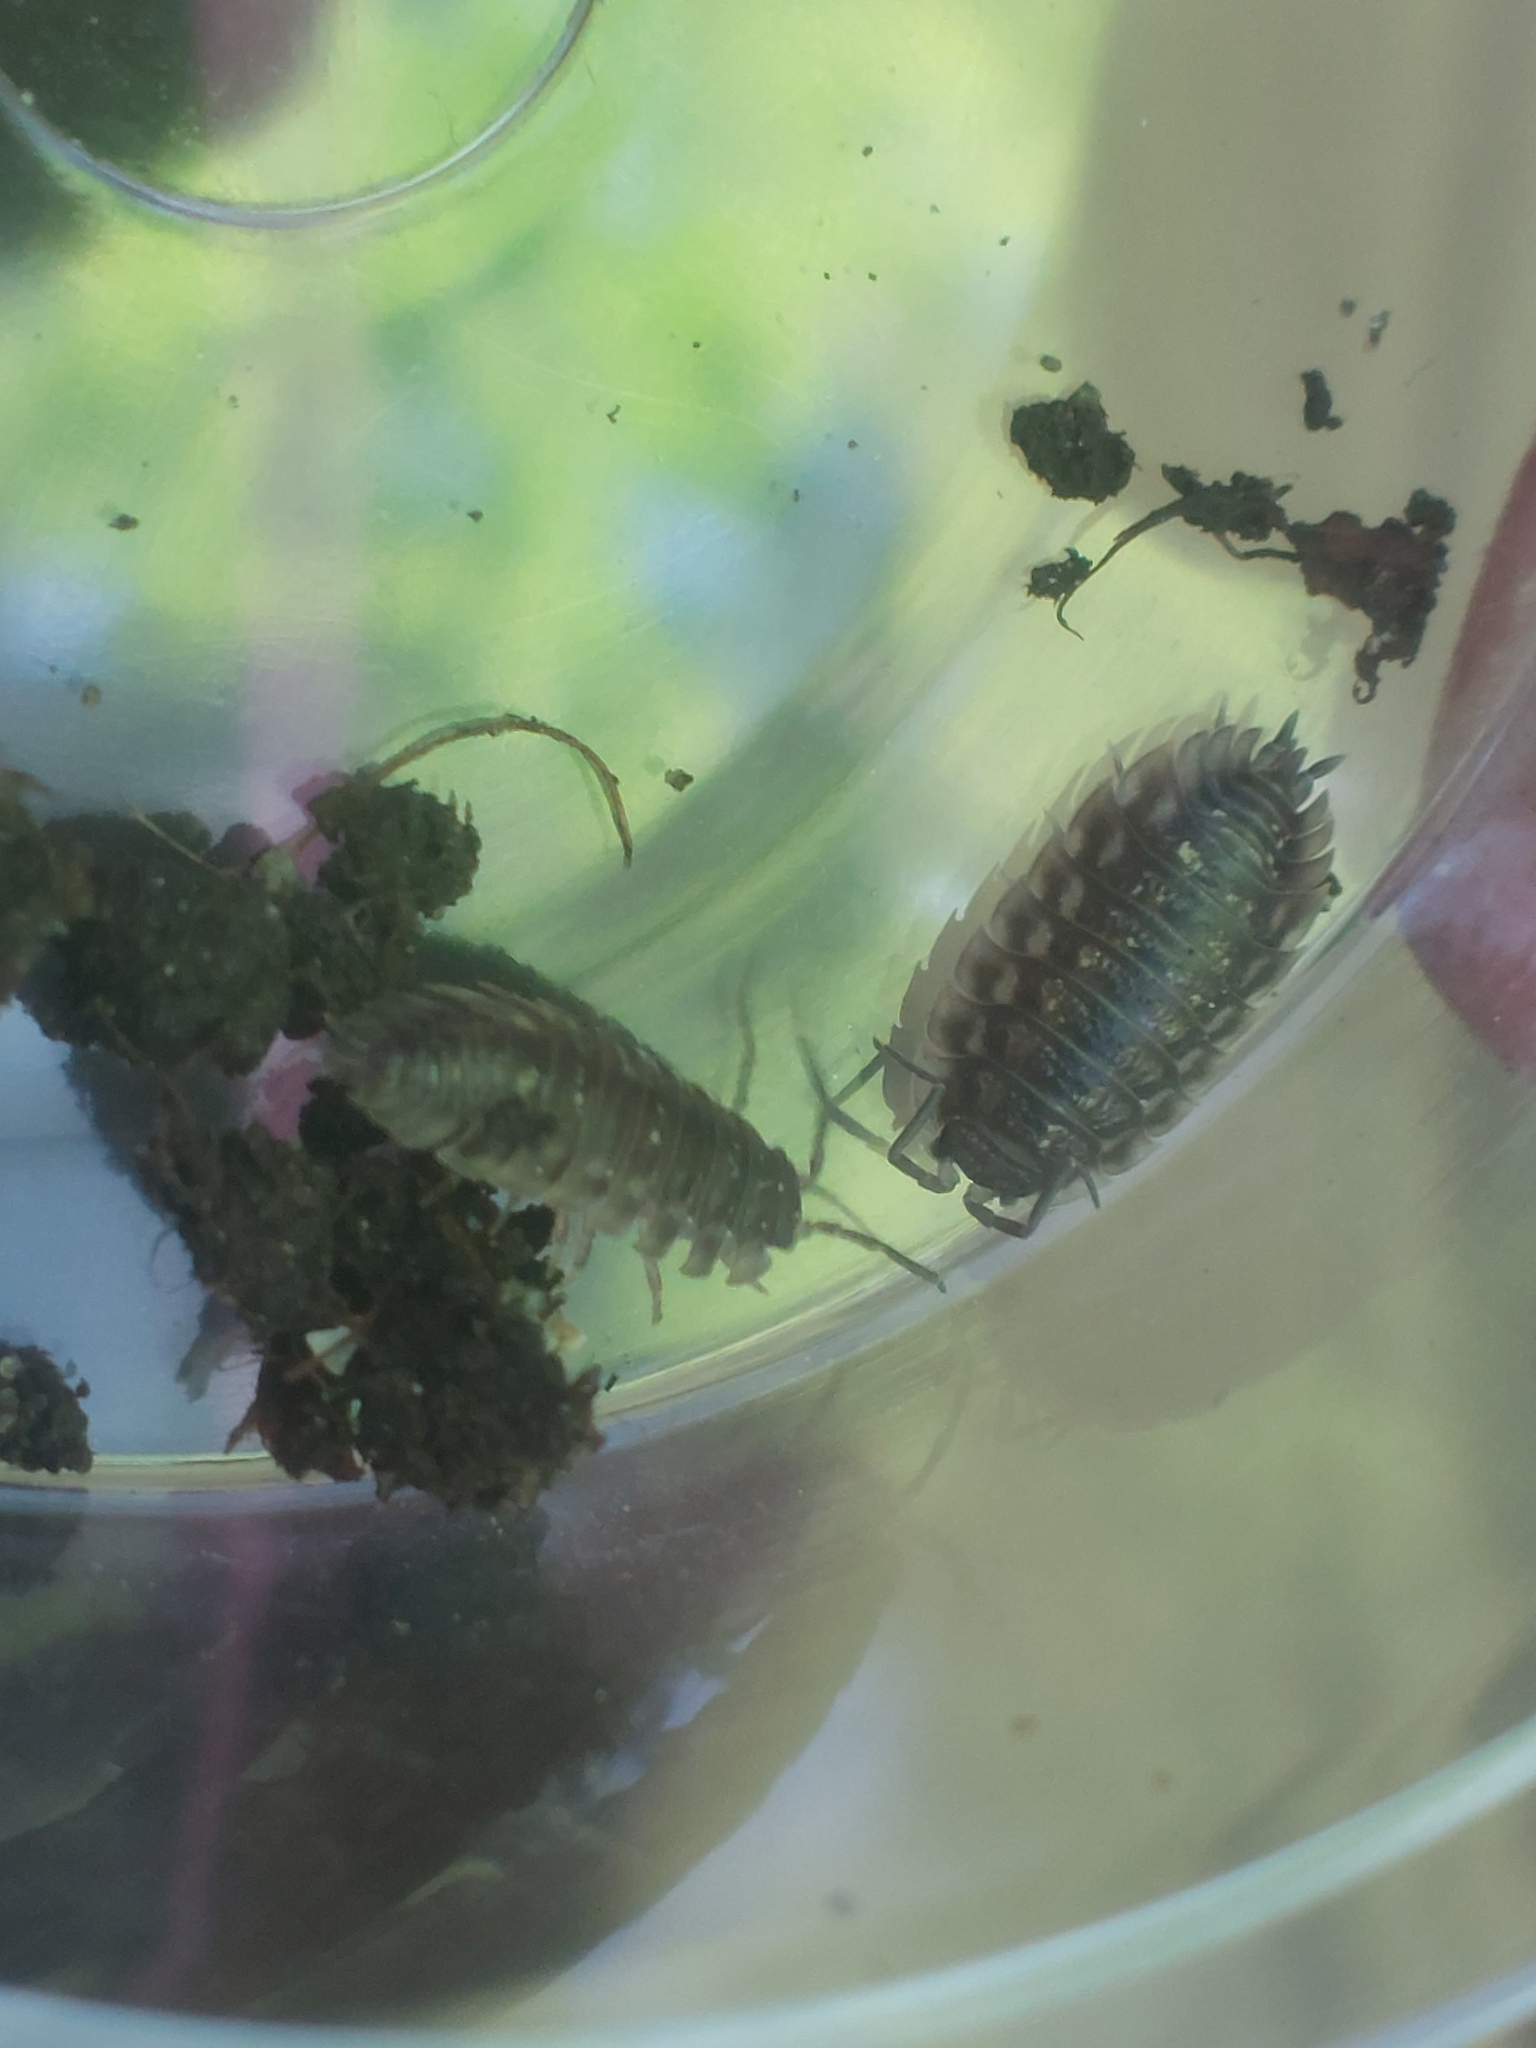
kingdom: Animalia
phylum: Arthropoda
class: Malacostraca
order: Isopoda
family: Oniscidae
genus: Oniscus
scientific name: Oniscus asellus
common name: Common shiny woodlouse
